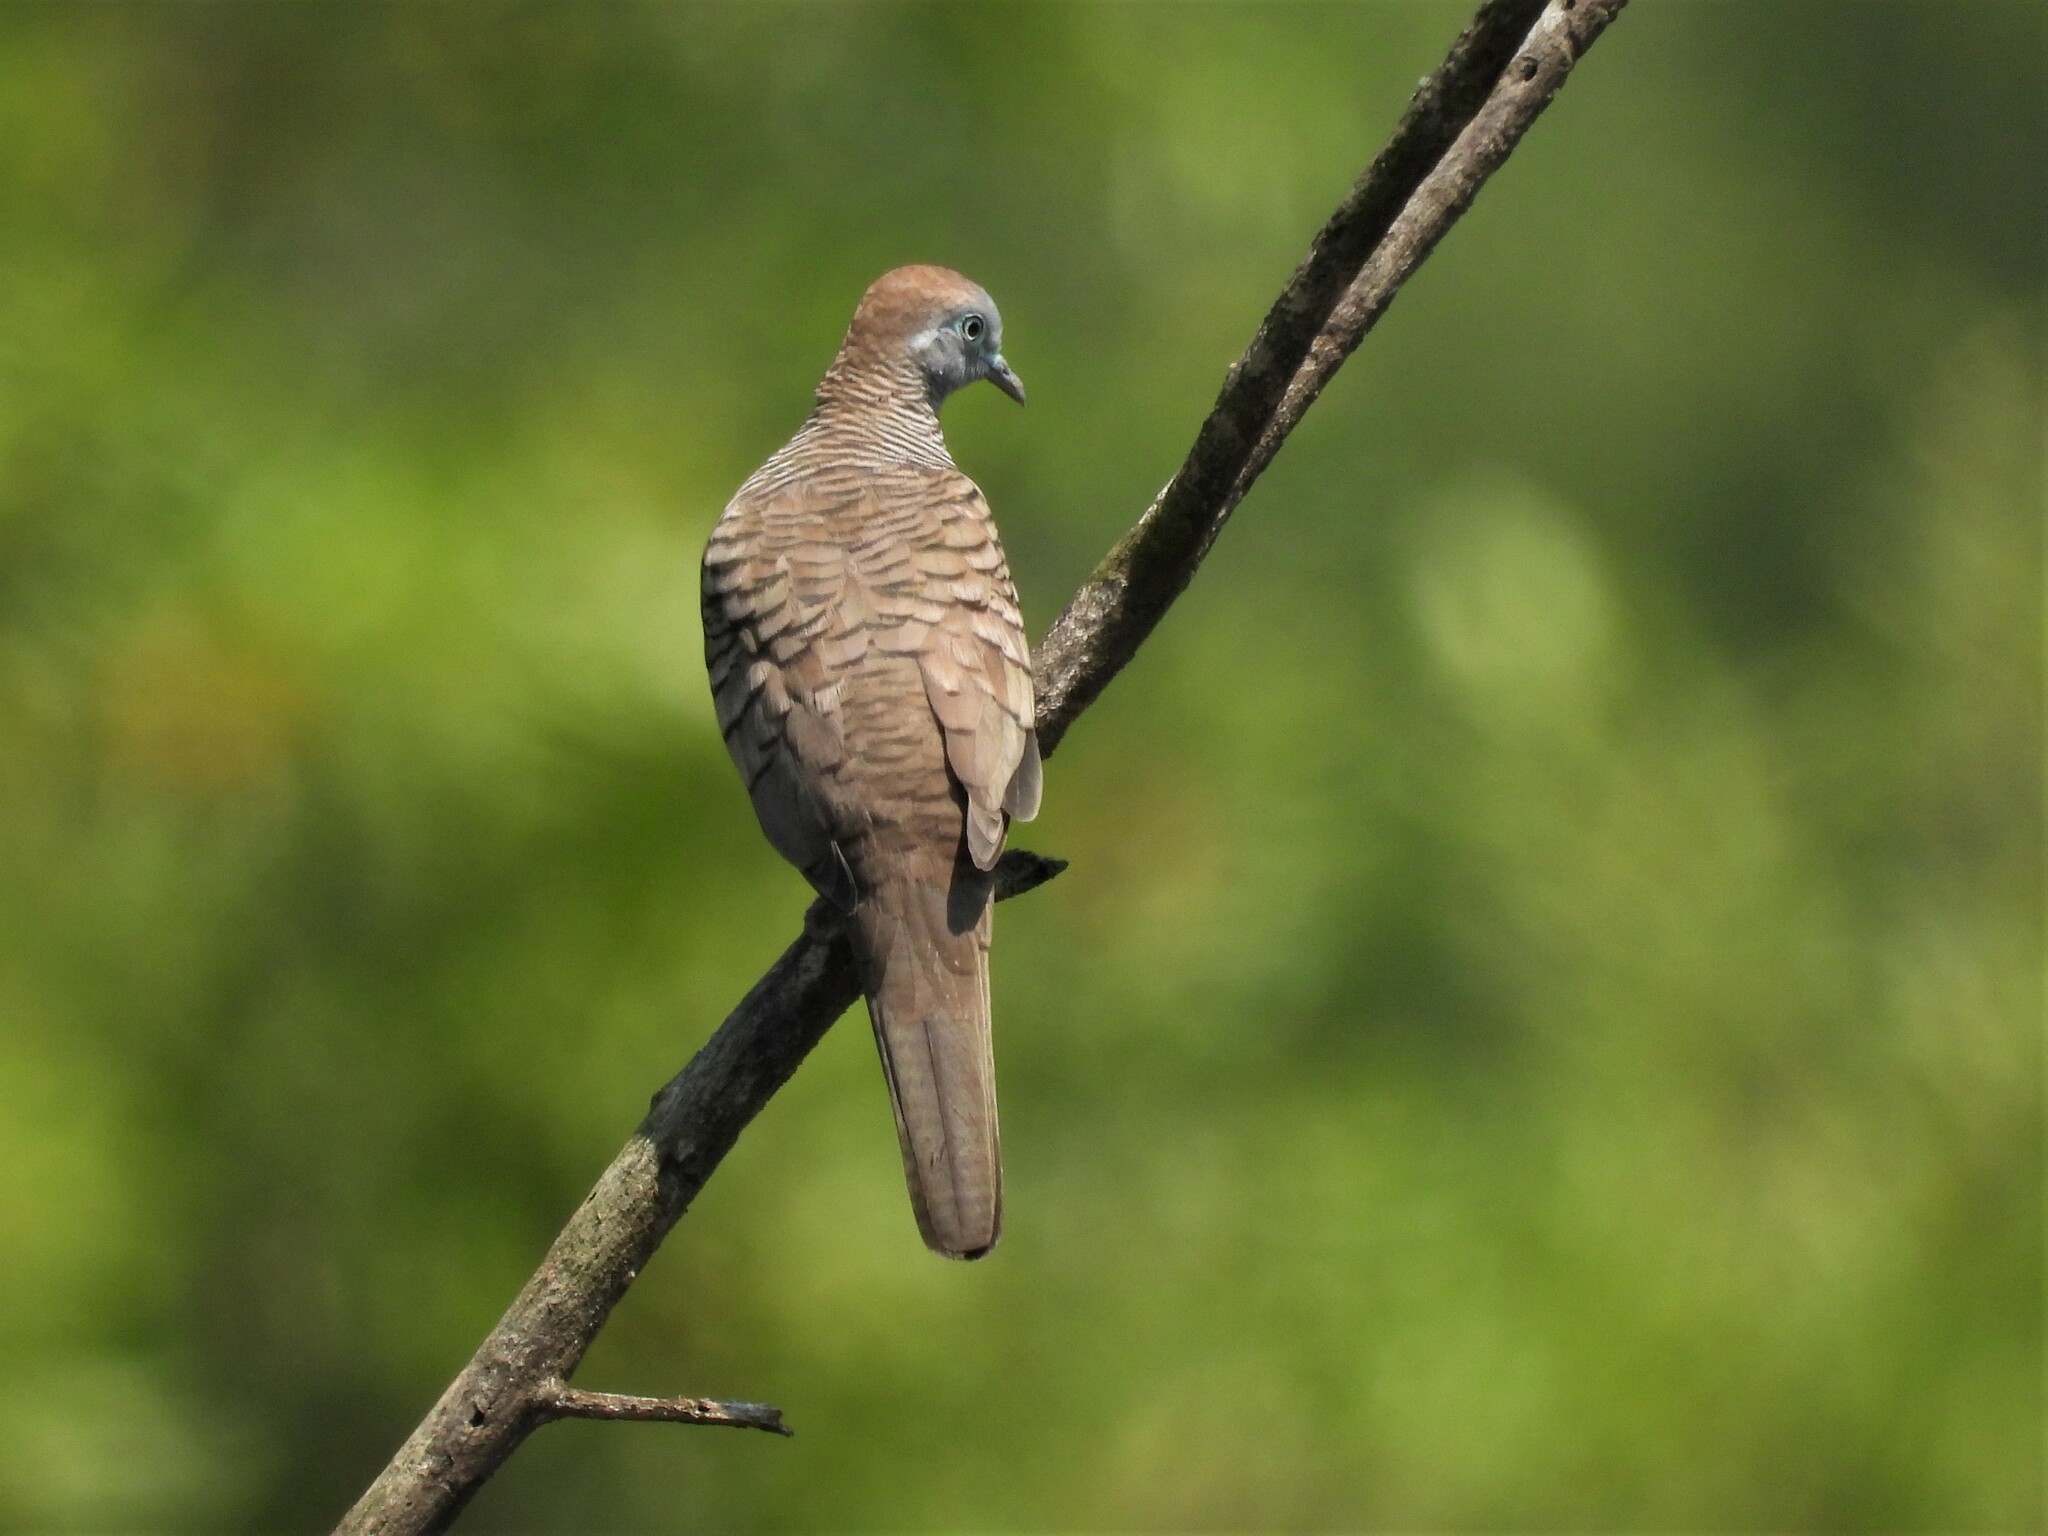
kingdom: Animalia
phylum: Chordata
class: Aves
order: Columbiformes
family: Columbidae
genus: Geopelia
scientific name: Geopelia striata
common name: Zebra dove
